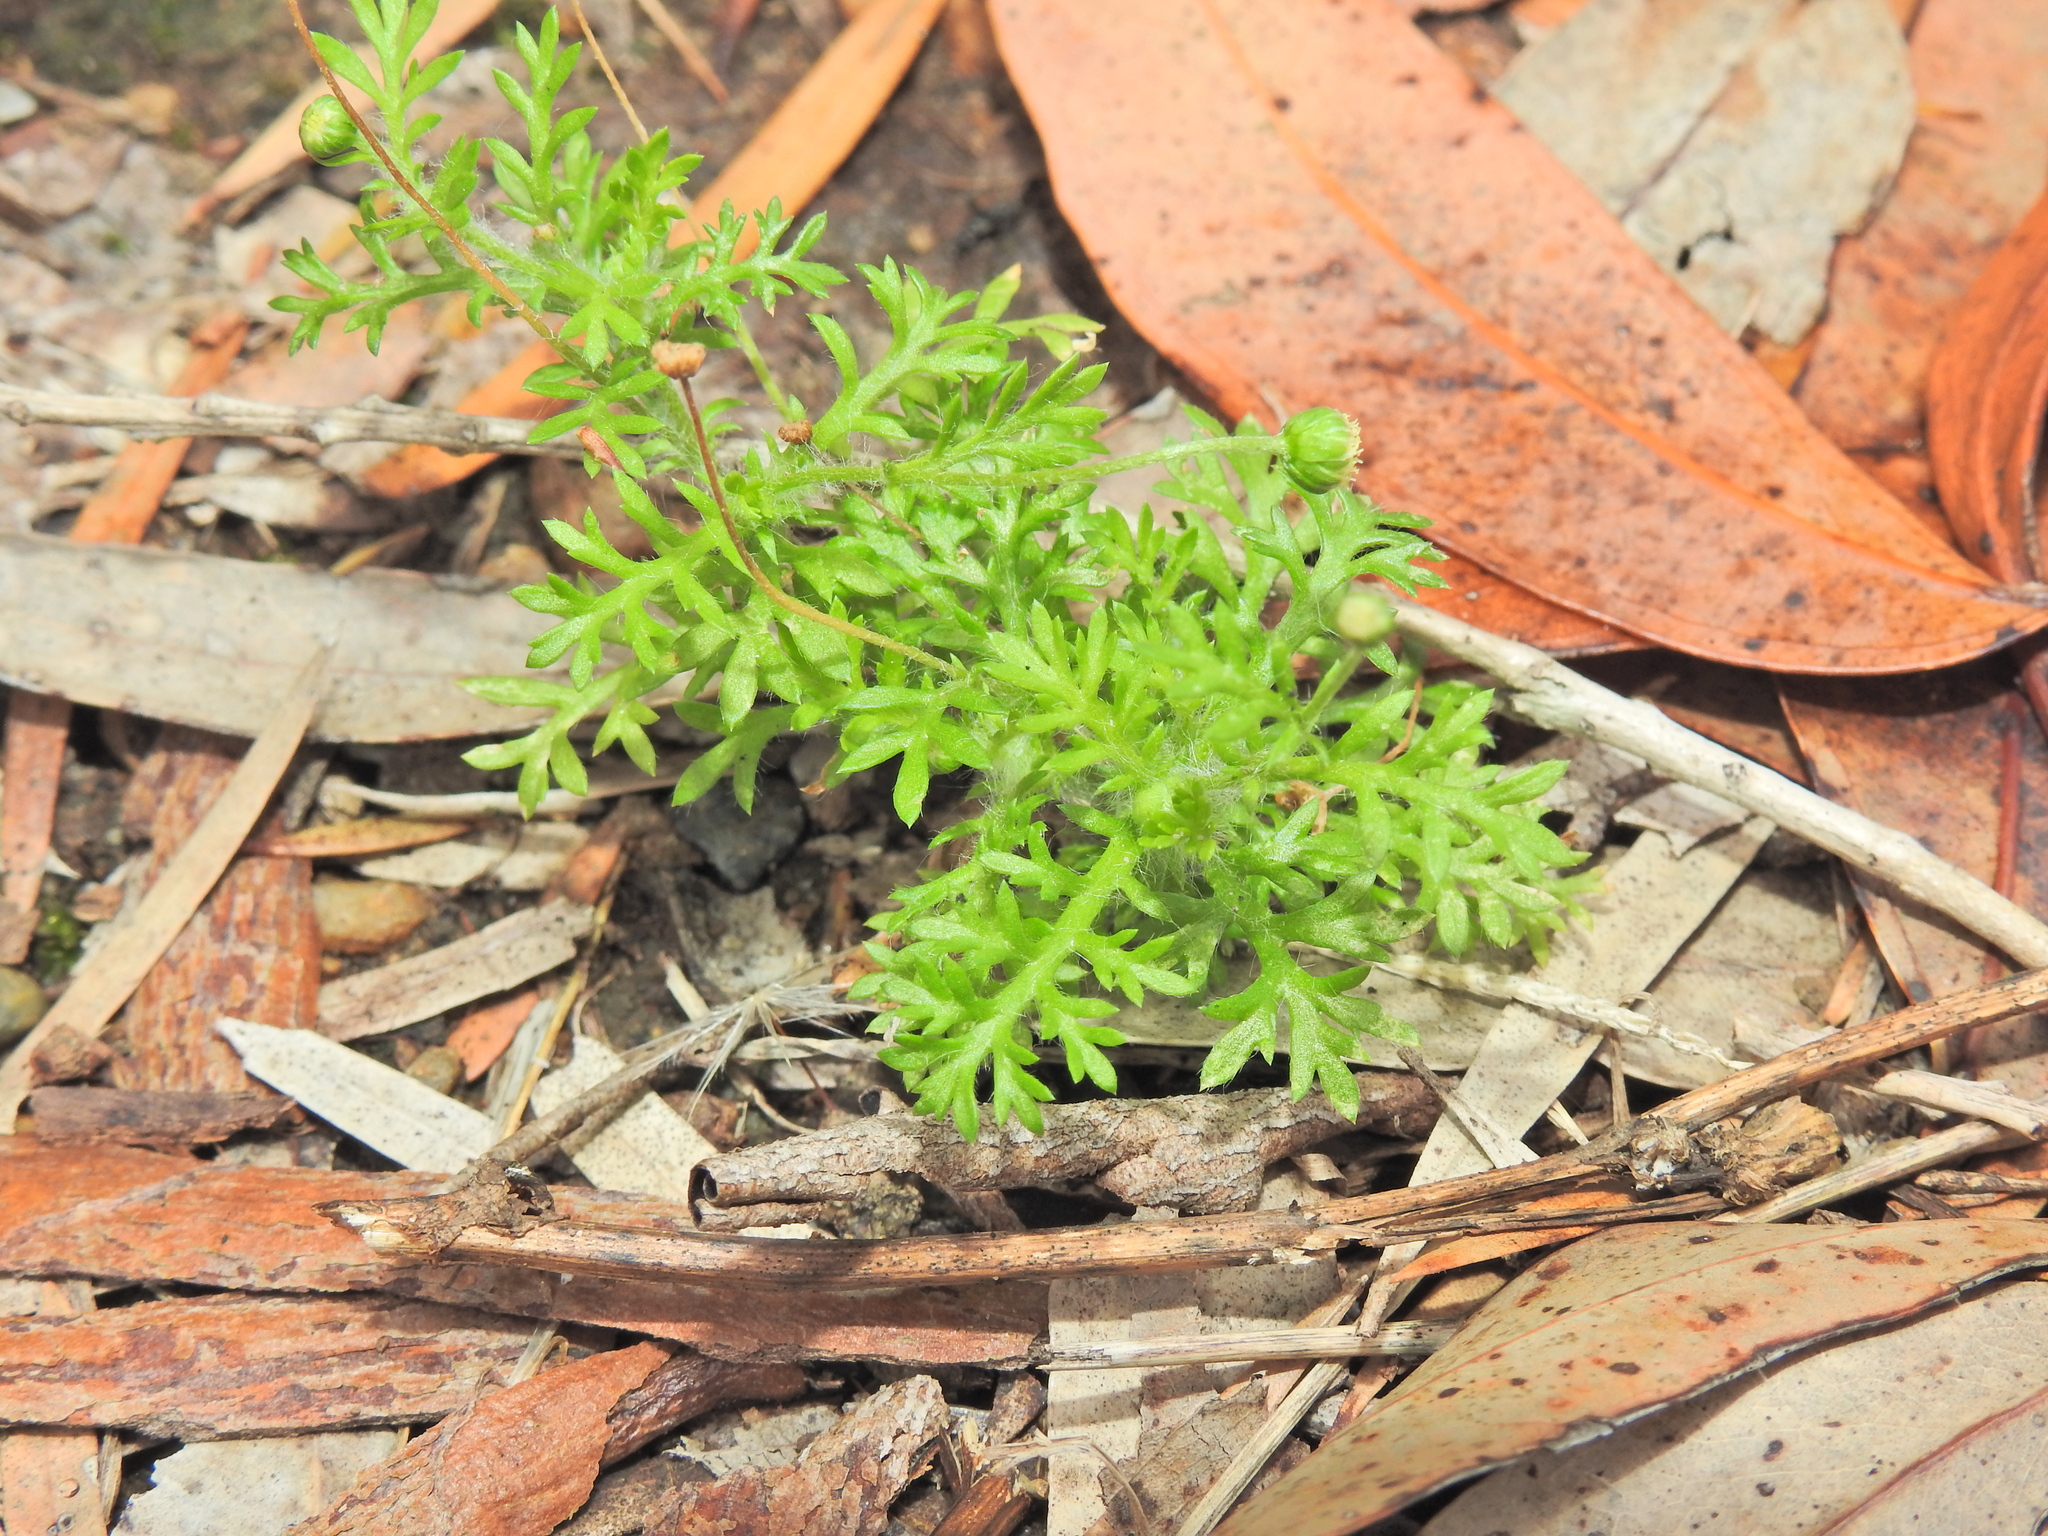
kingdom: Plantae
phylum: Tracheophyta
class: Magnoliopsida
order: Asterales
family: Asteraceae
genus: Cotula
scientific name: Cotula australis
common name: Australian waterbuttons
